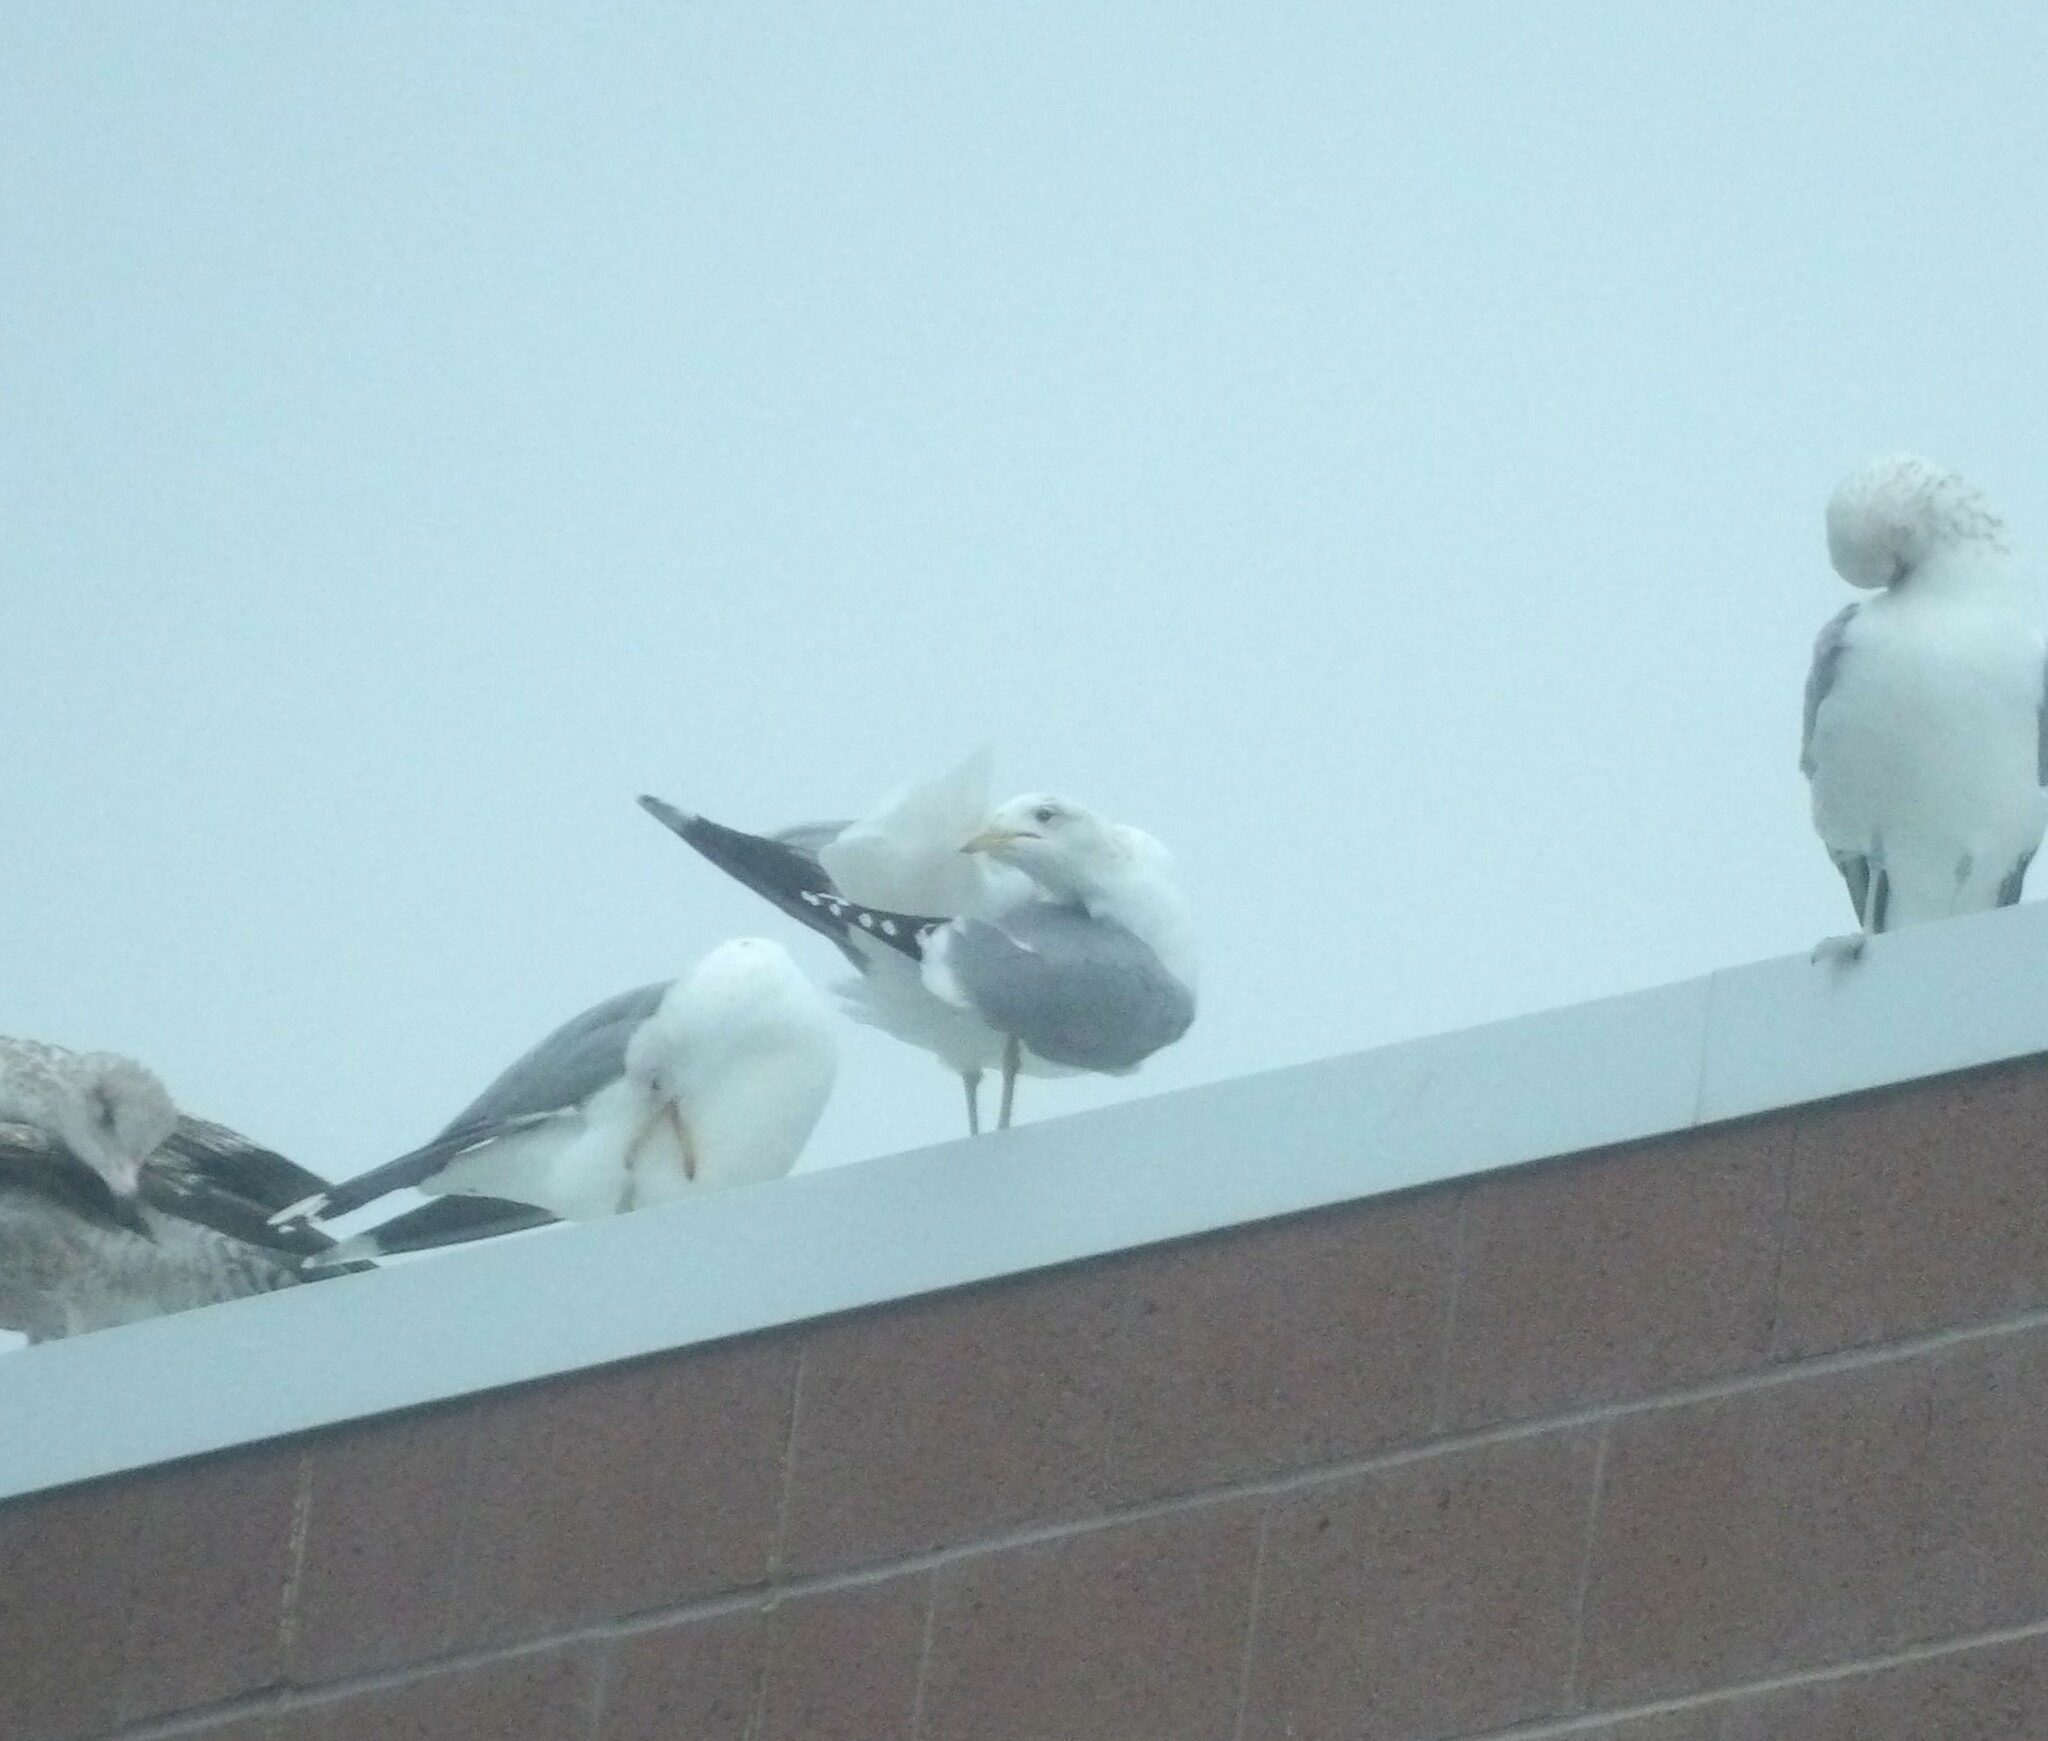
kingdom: Animalia
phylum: Chordata
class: Aves
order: Charadriiformes
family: Laridae
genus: Larus
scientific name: Larus californicus
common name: California gull
